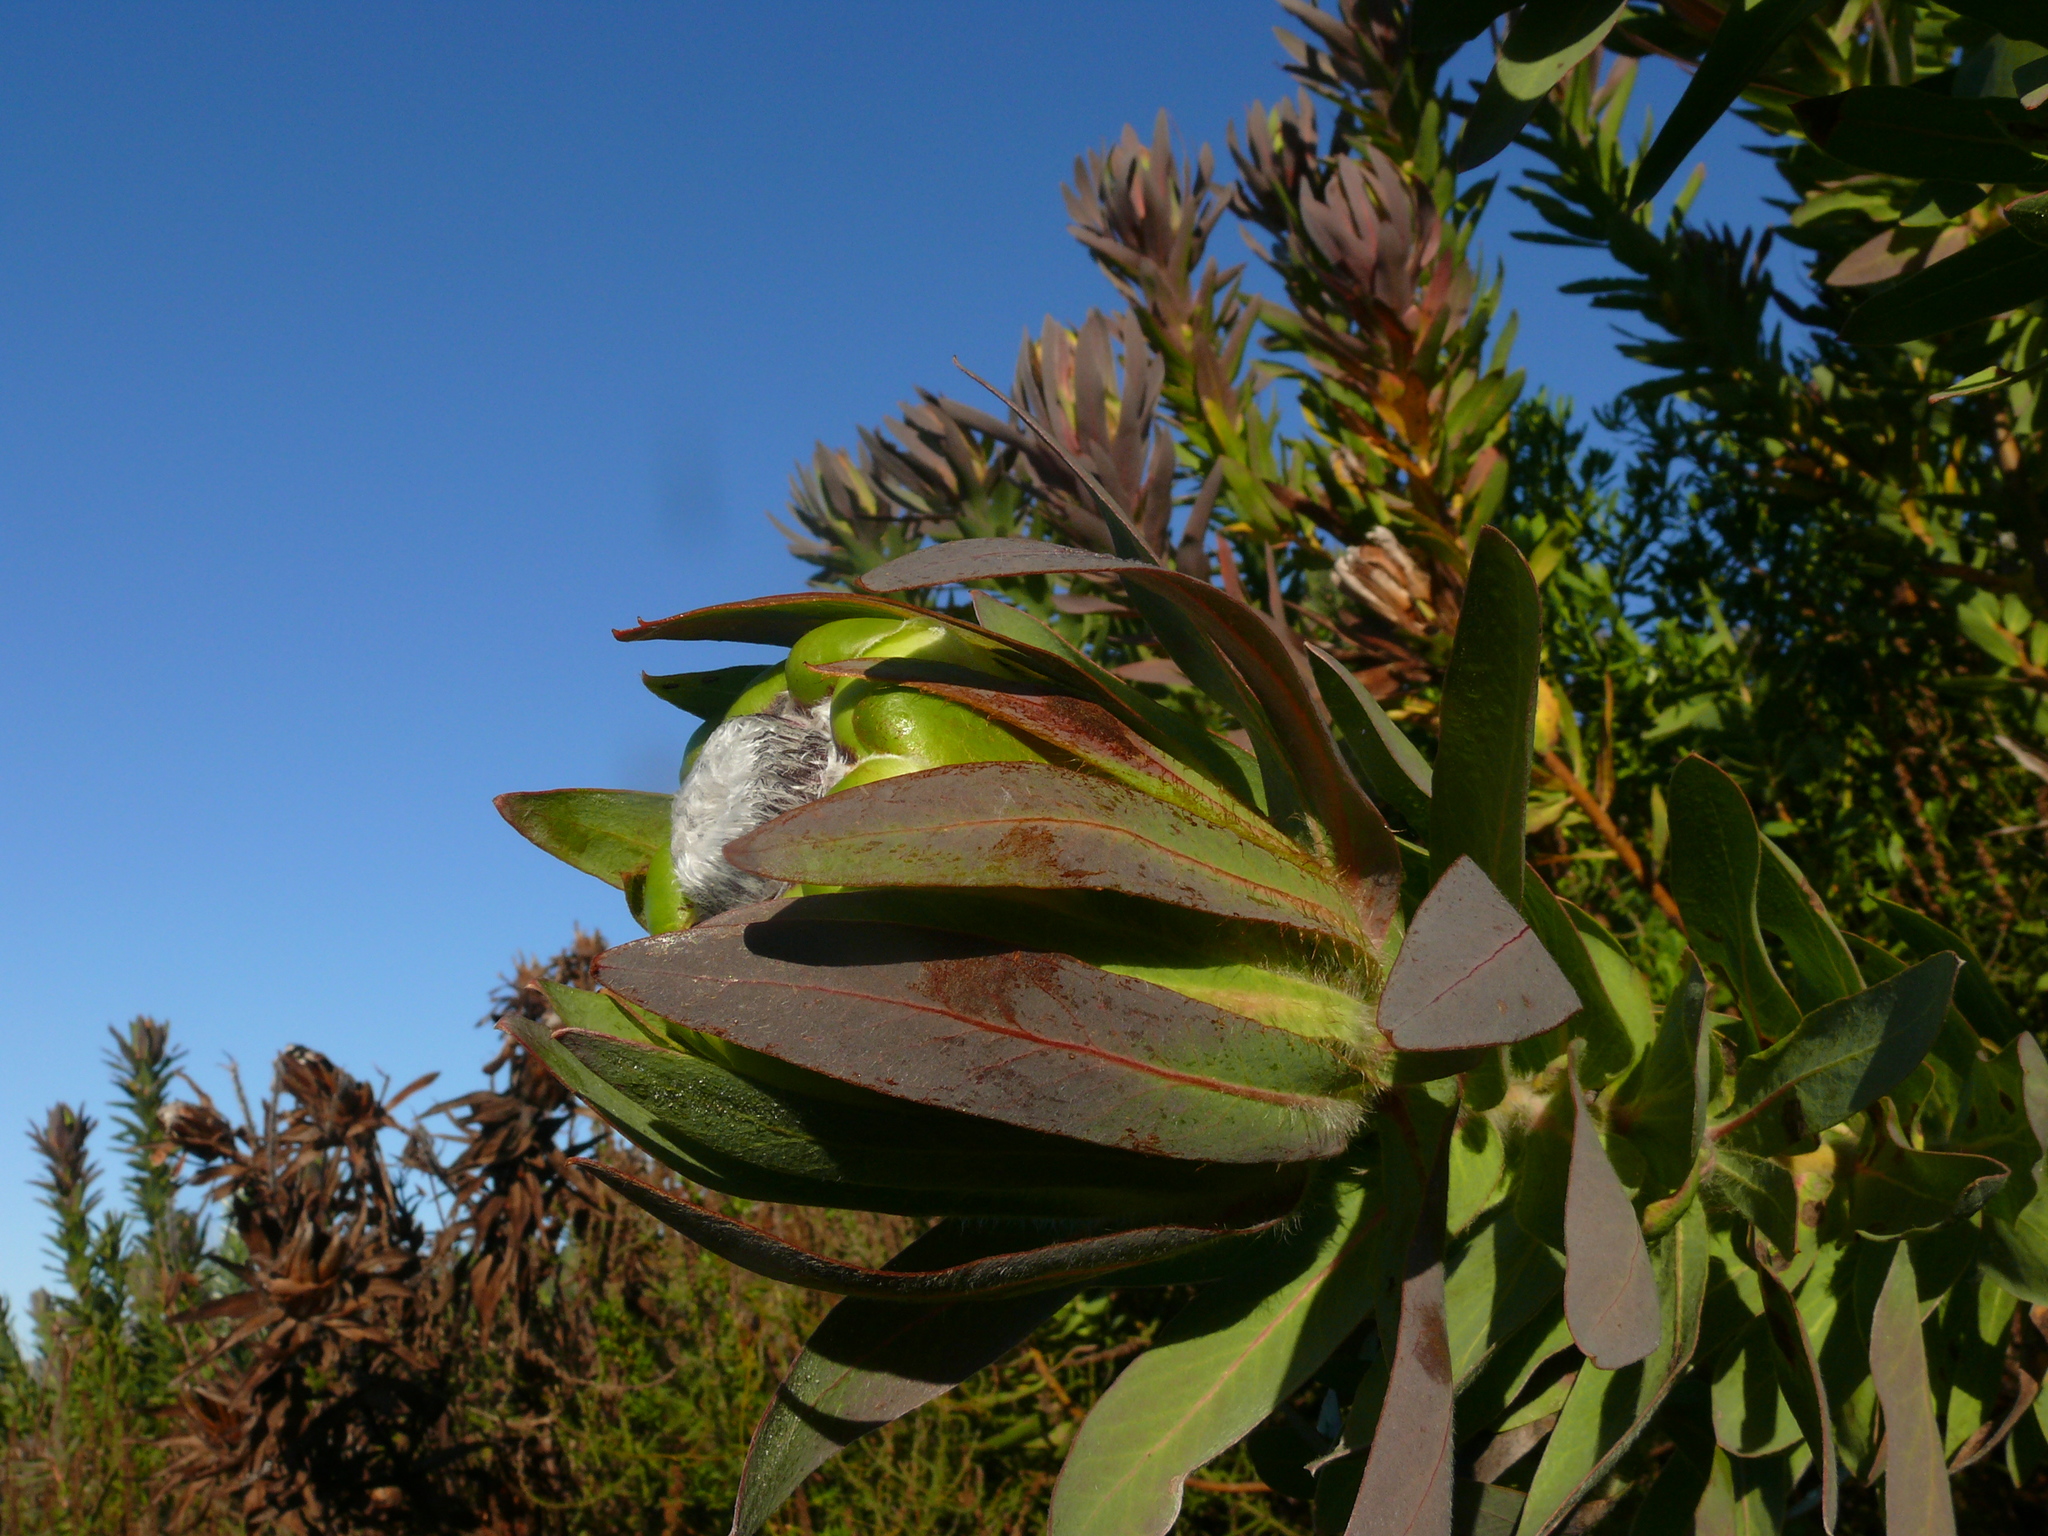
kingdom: Plantae
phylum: Tracheophyta
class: Magnoliopsida
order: Proteales
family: Proteaceae
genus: Protea
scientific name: Protea coronata
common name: Green sugarbush
